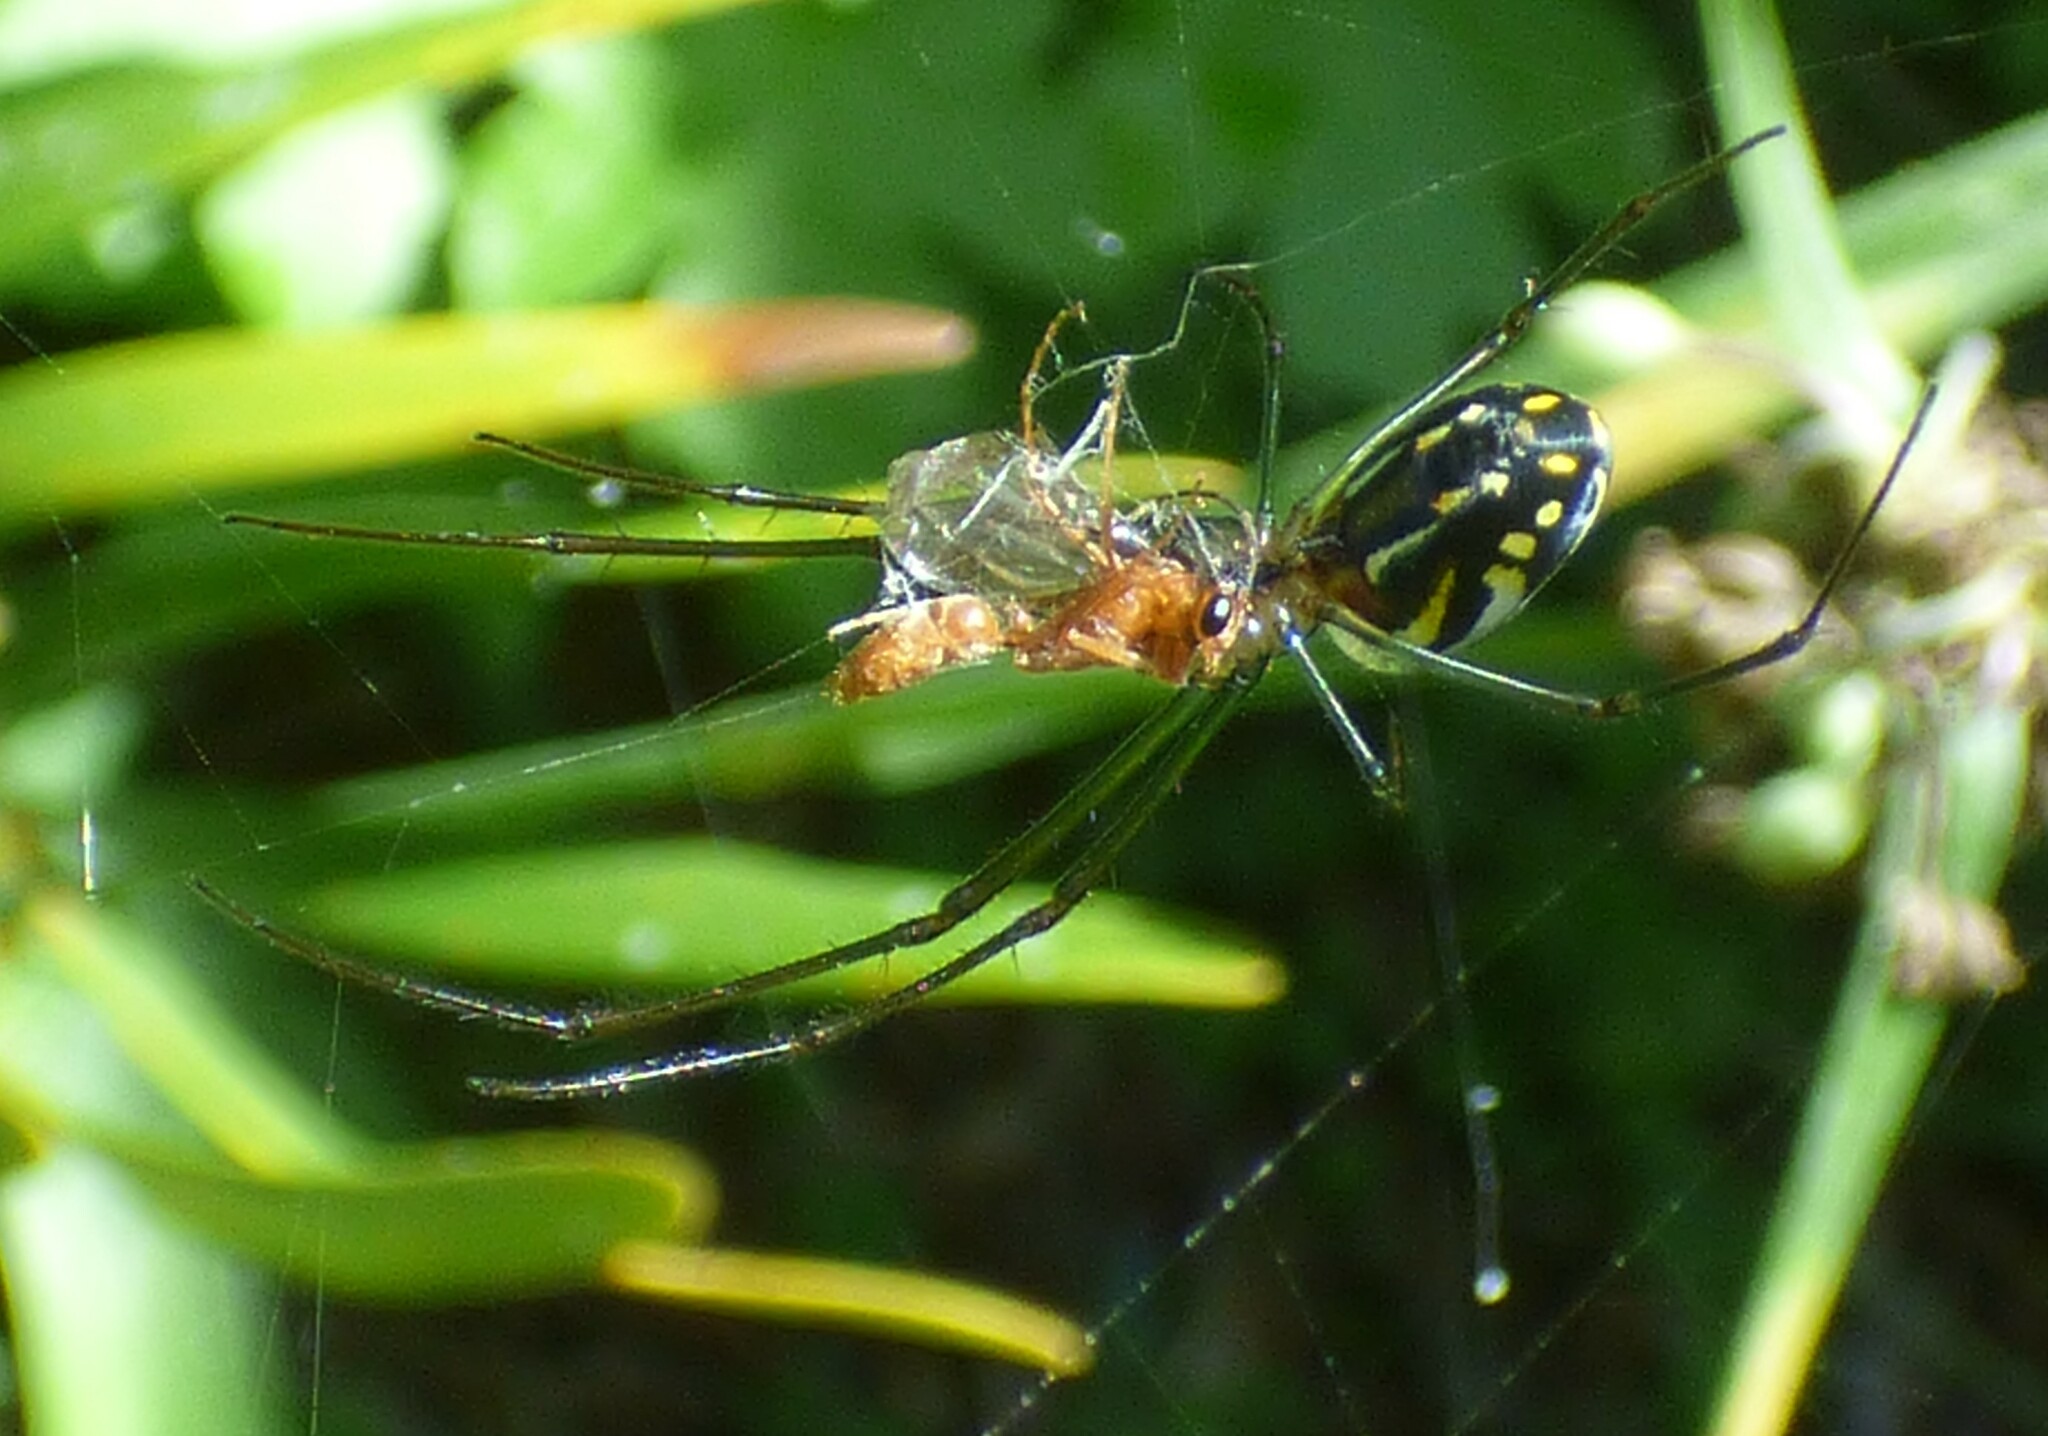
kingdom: Animalia
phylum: Arthropoda
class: Arachnida
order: Araneae
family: Tetragnathidae
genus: Leucauge
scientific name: Leucauge argyra
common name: Longjawed orb weavers
